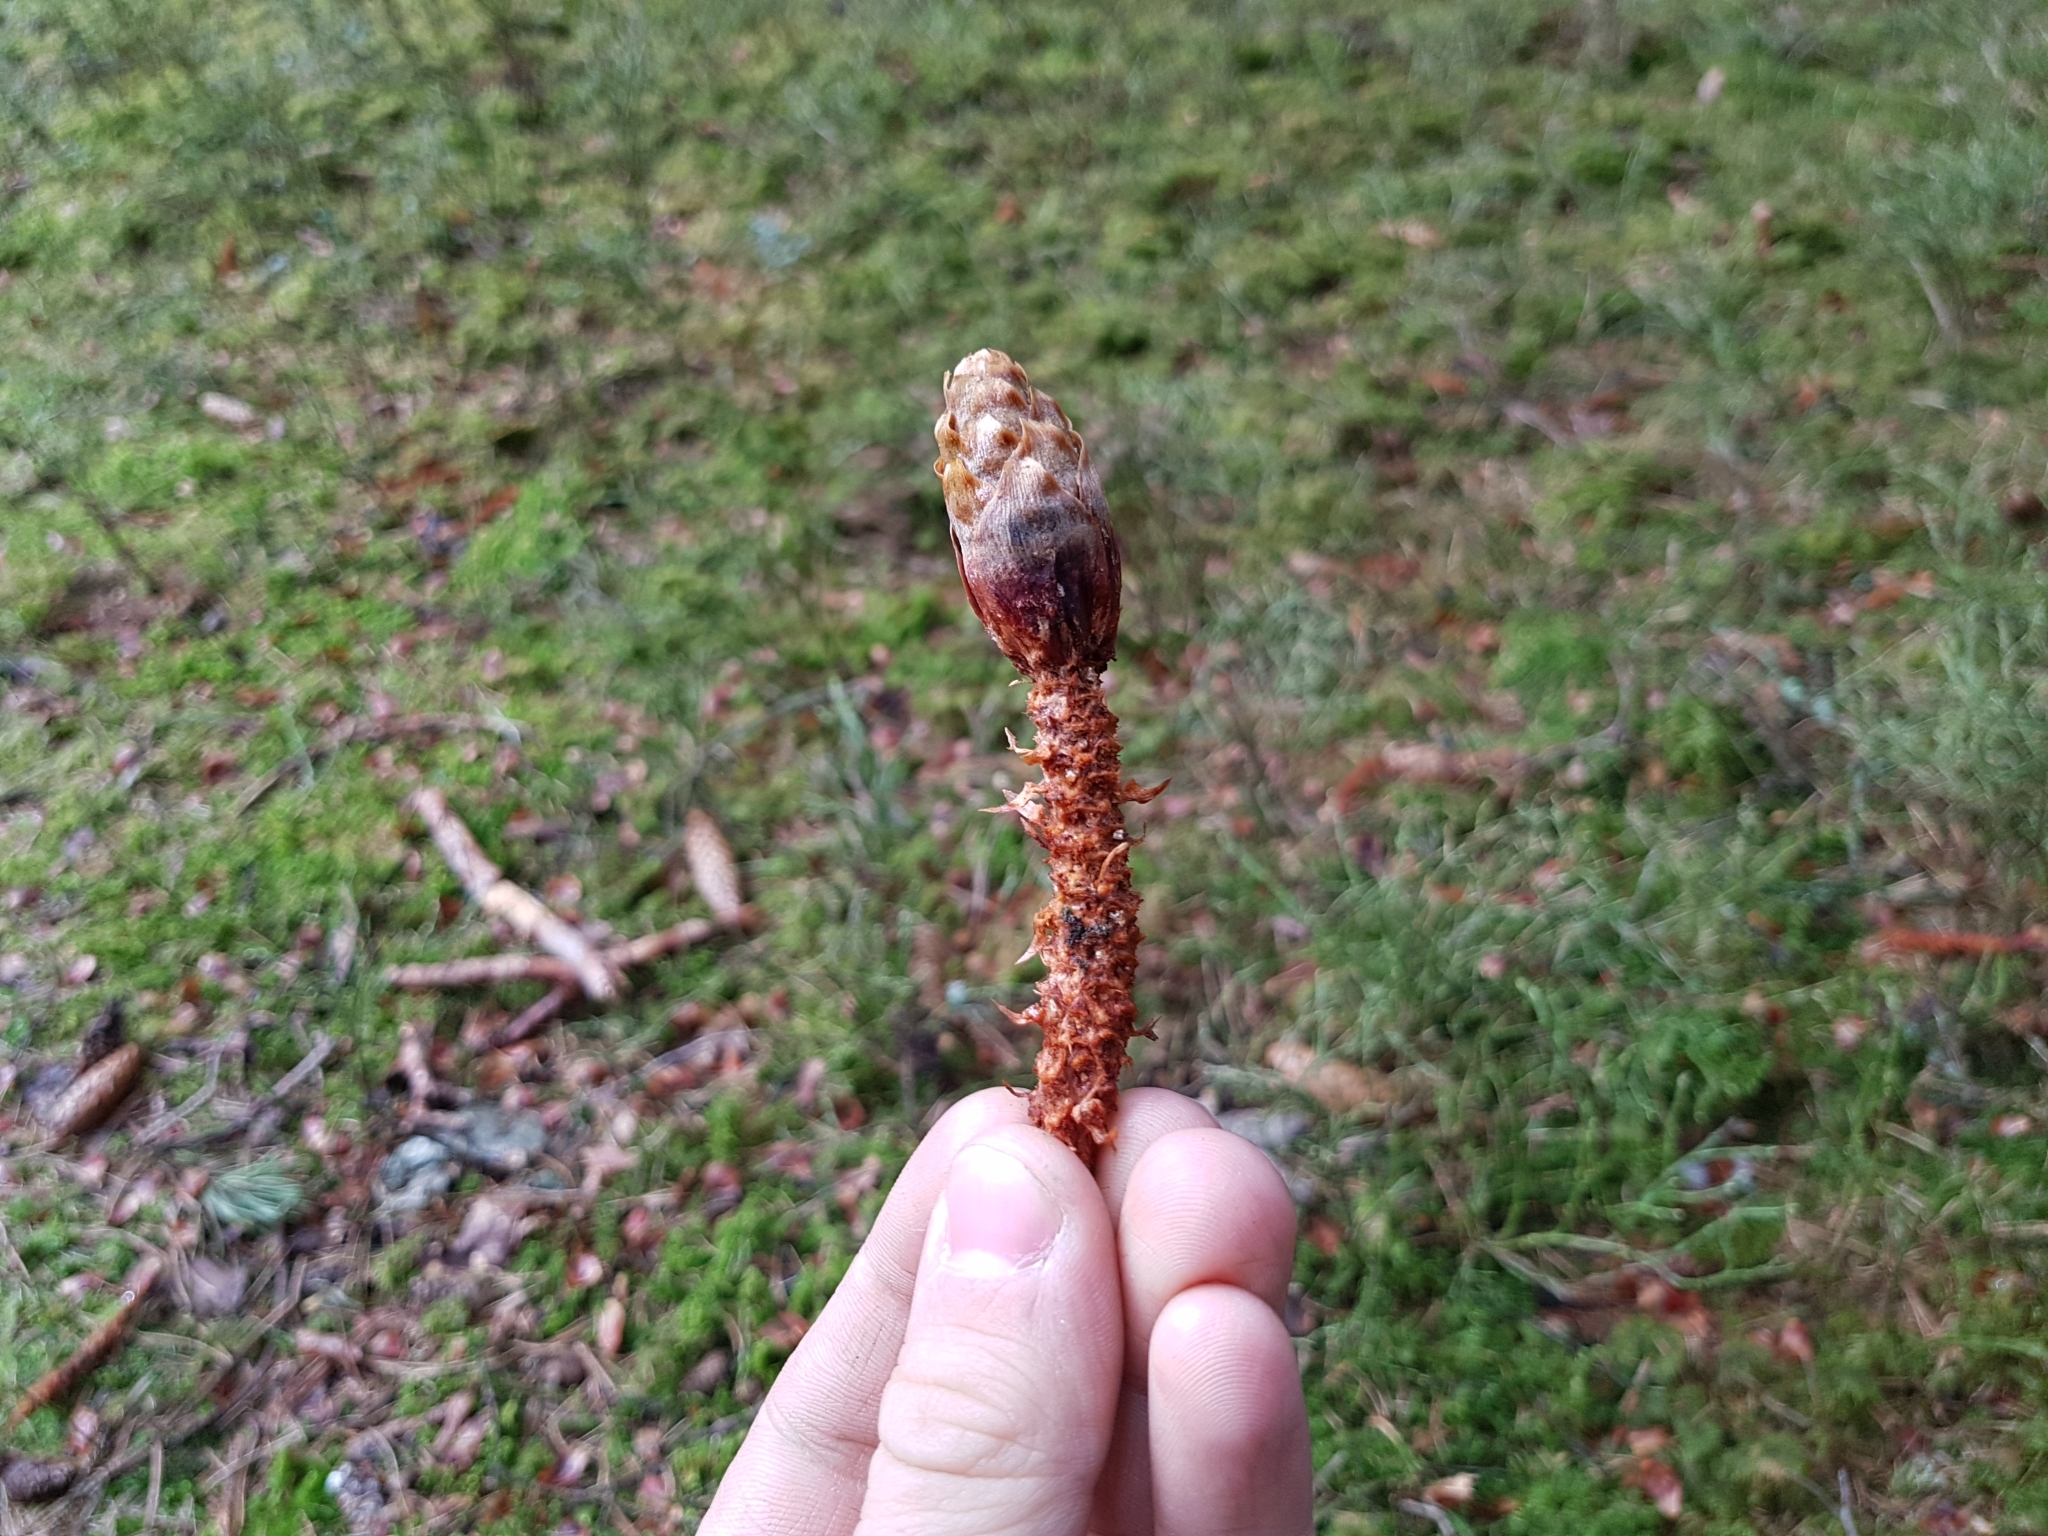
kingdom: Animalia
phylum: Chordata
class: Mammalia
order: Rodentia
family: Sciuridae
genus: Sciurus
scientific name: Sciurus vulgaris
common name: Eurasian red squirrel
